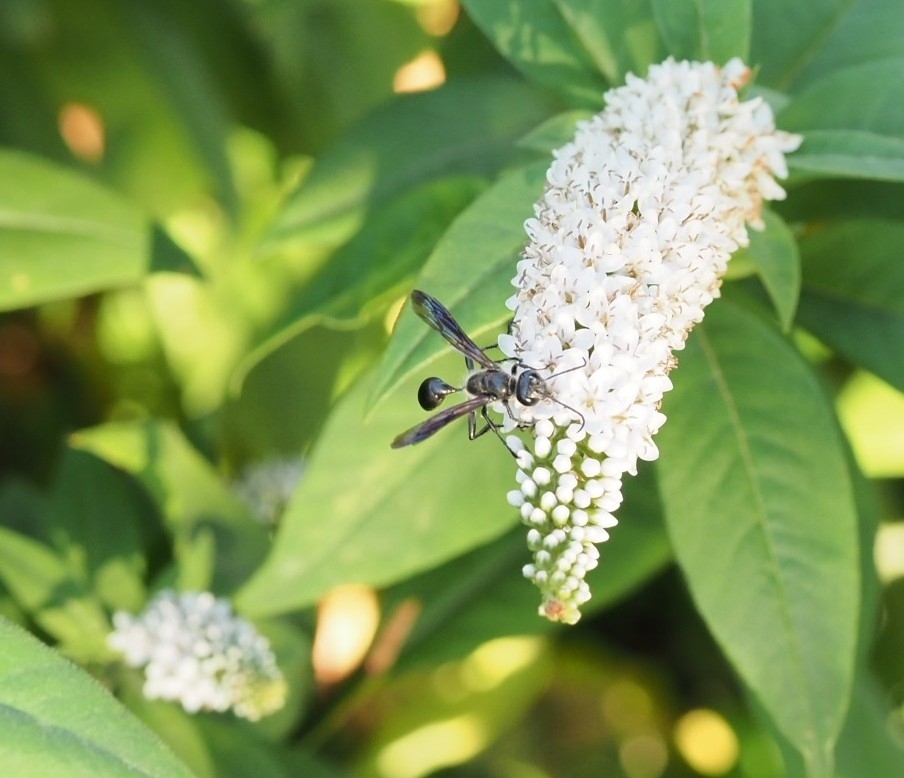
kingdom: Animalia
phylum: Arthropoda
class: Insecta
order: Hymenoptera
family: Sphecidae
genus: Isodontia
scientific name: Isodontia mexicana
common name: Mud dauber
